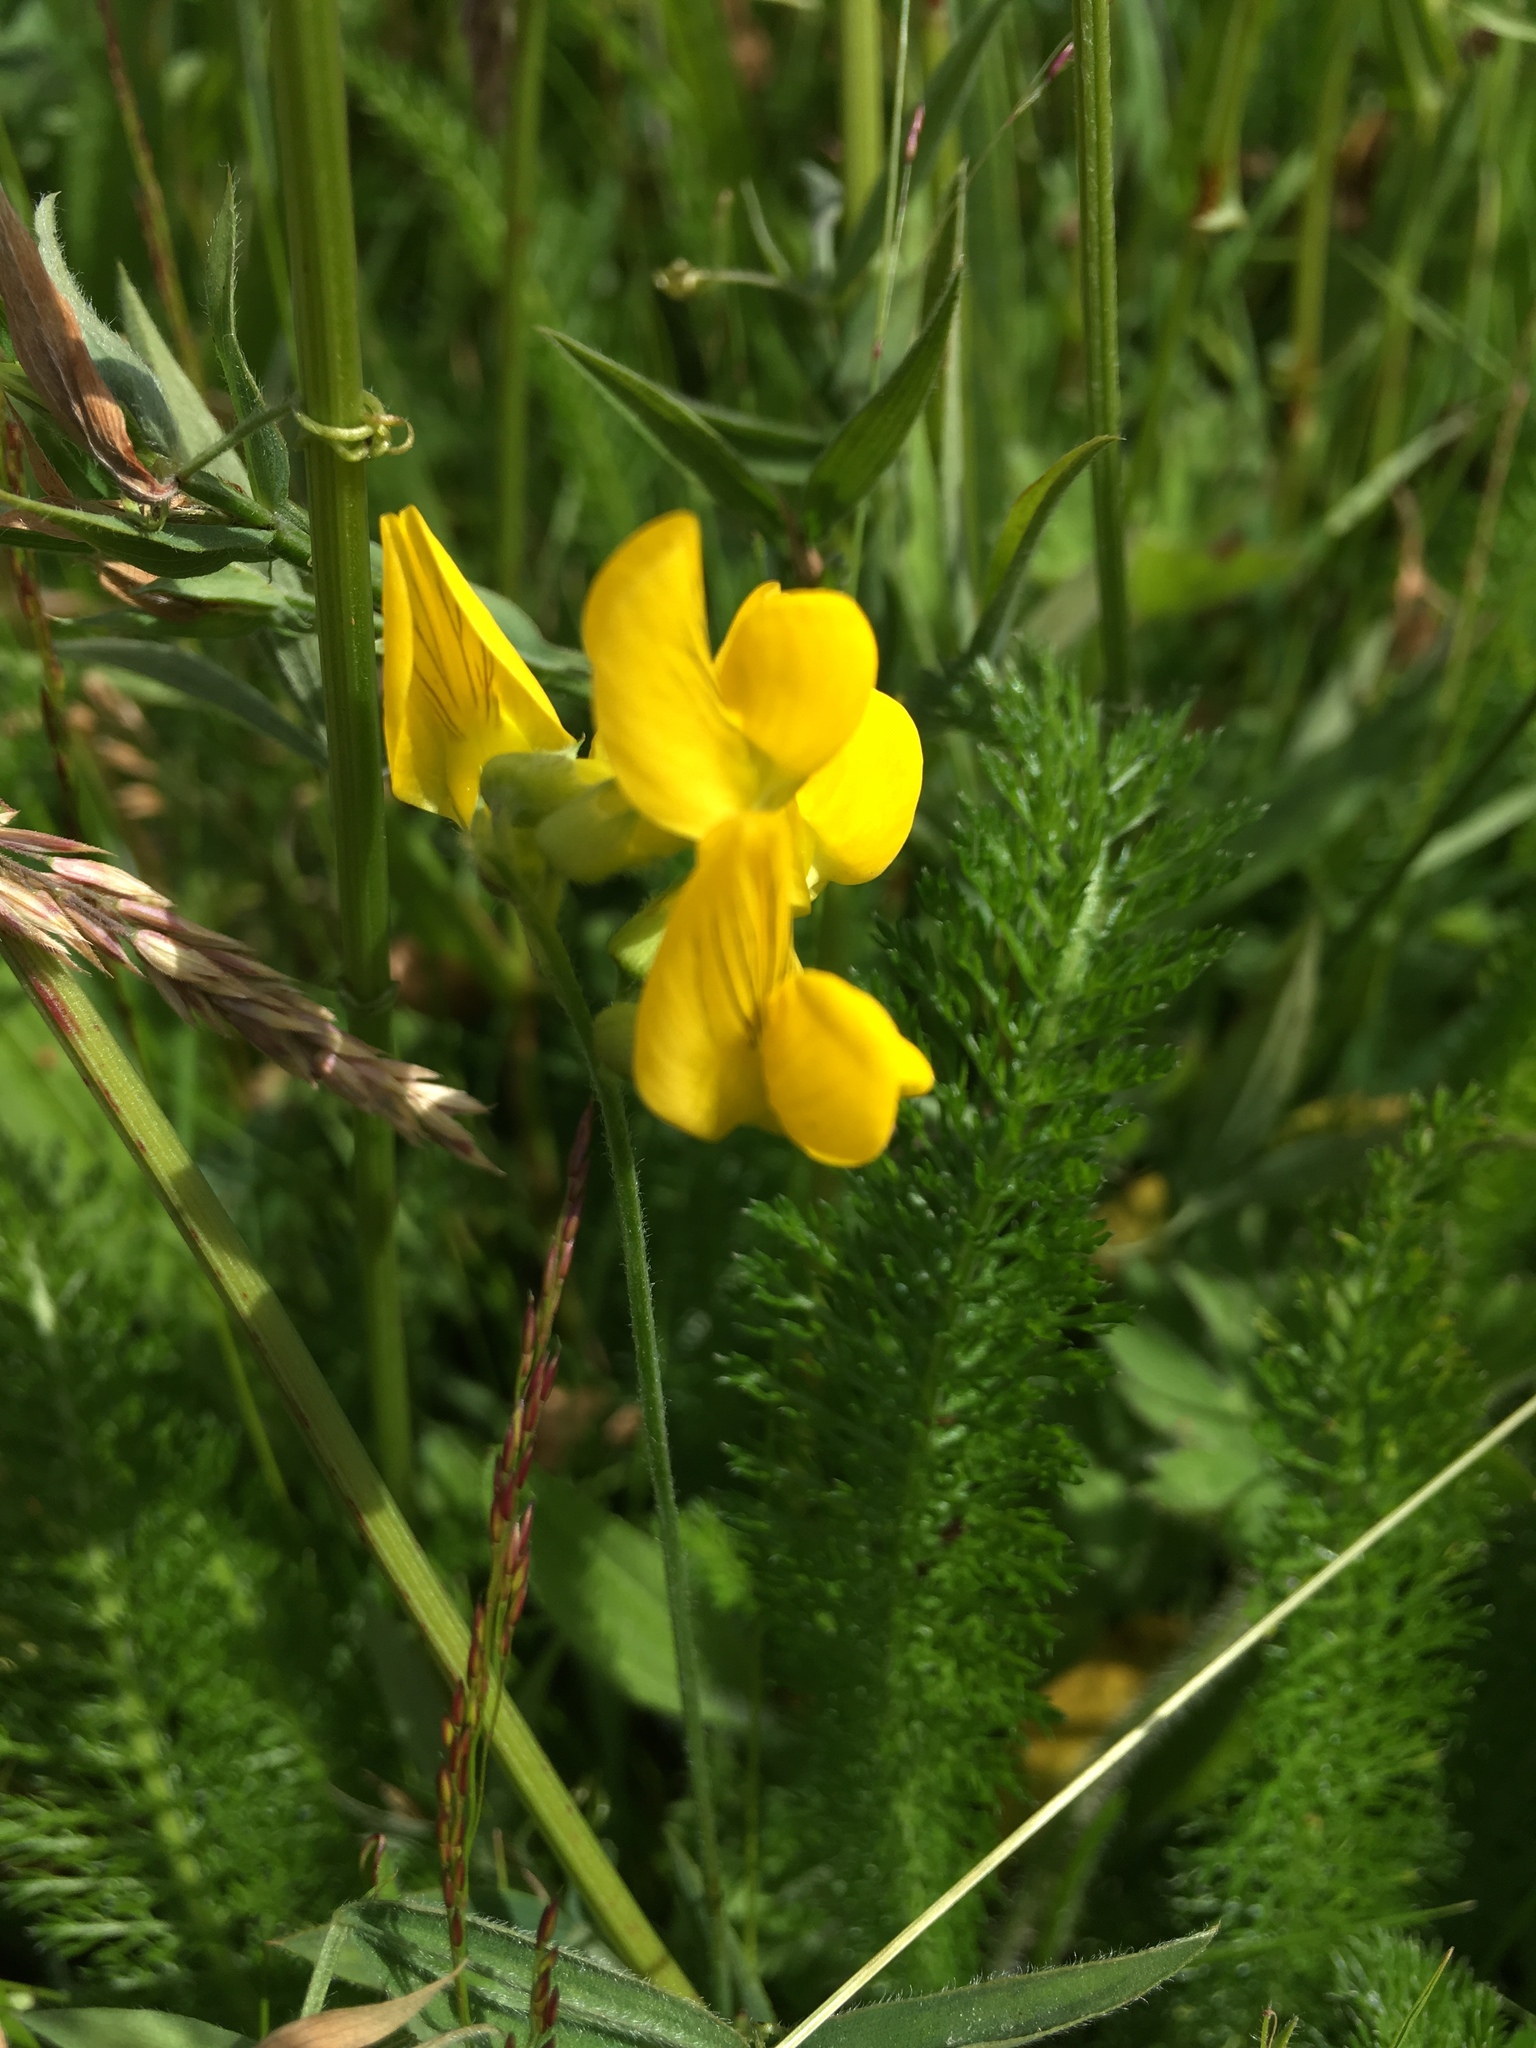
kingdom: Plantae
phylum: Tracheophyta
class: Magnoliopsida
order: Fabales
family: Fabaceae
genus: Lathyrus
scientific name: Lathyrus pratensis
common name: Meadow vetchling
